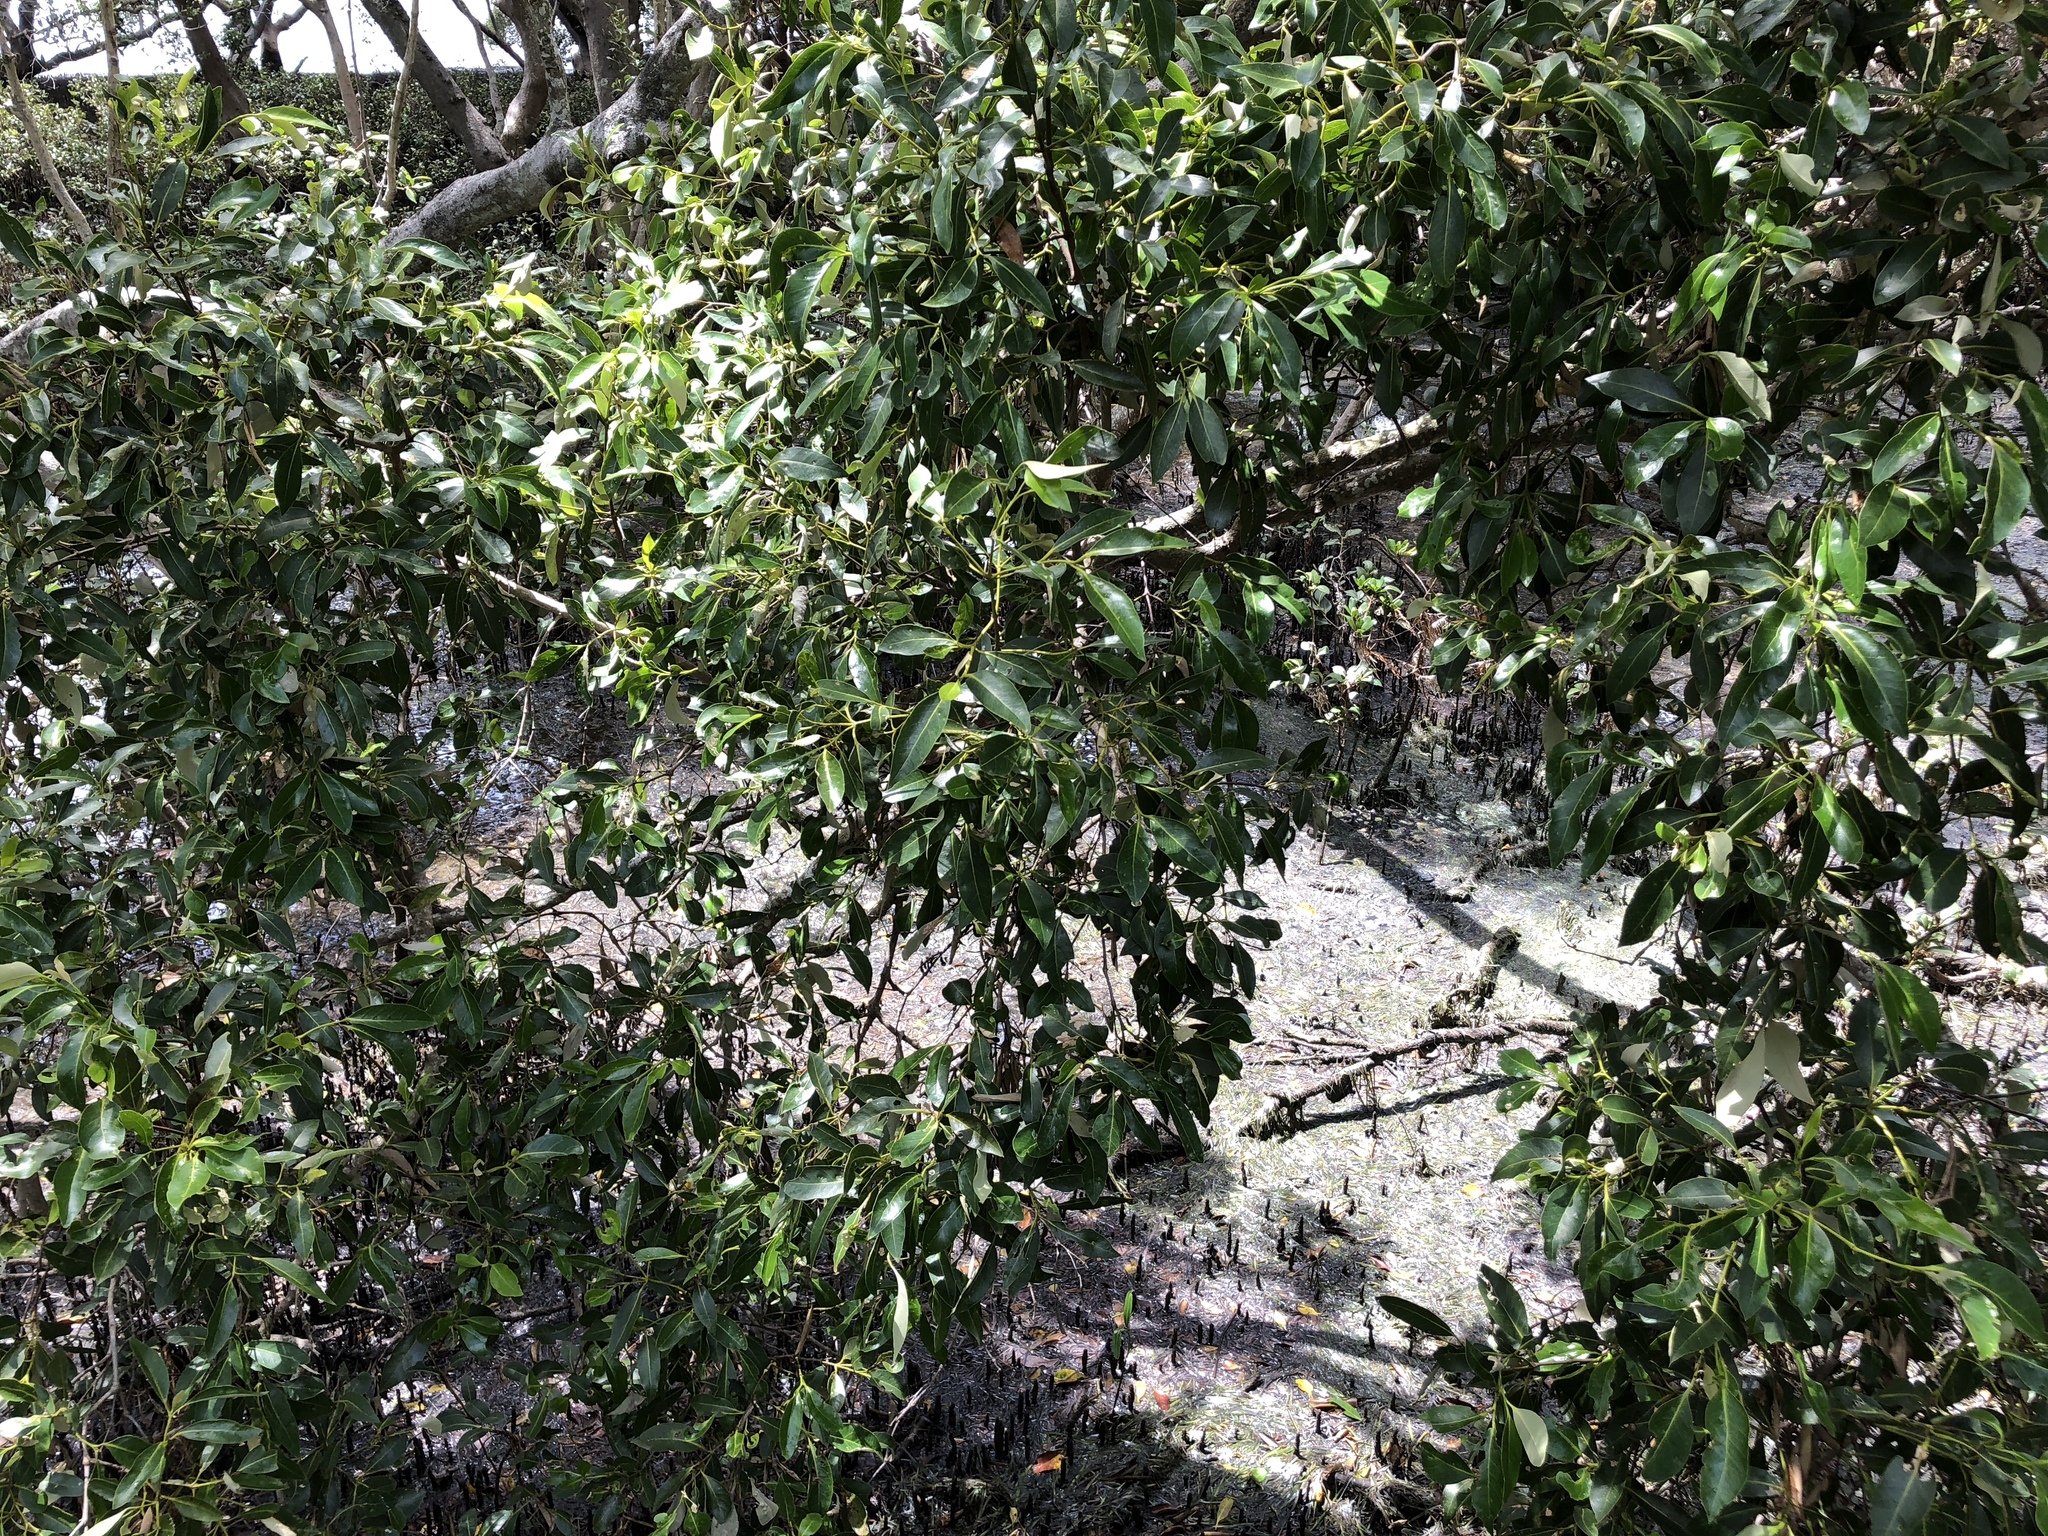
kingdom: Plantae
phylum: Tracheophyta
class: Magnoliopsida
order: Lamiales
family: Acanthaceae
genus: Avicennia
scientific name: Avicennia marina
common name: Gray mangrove
